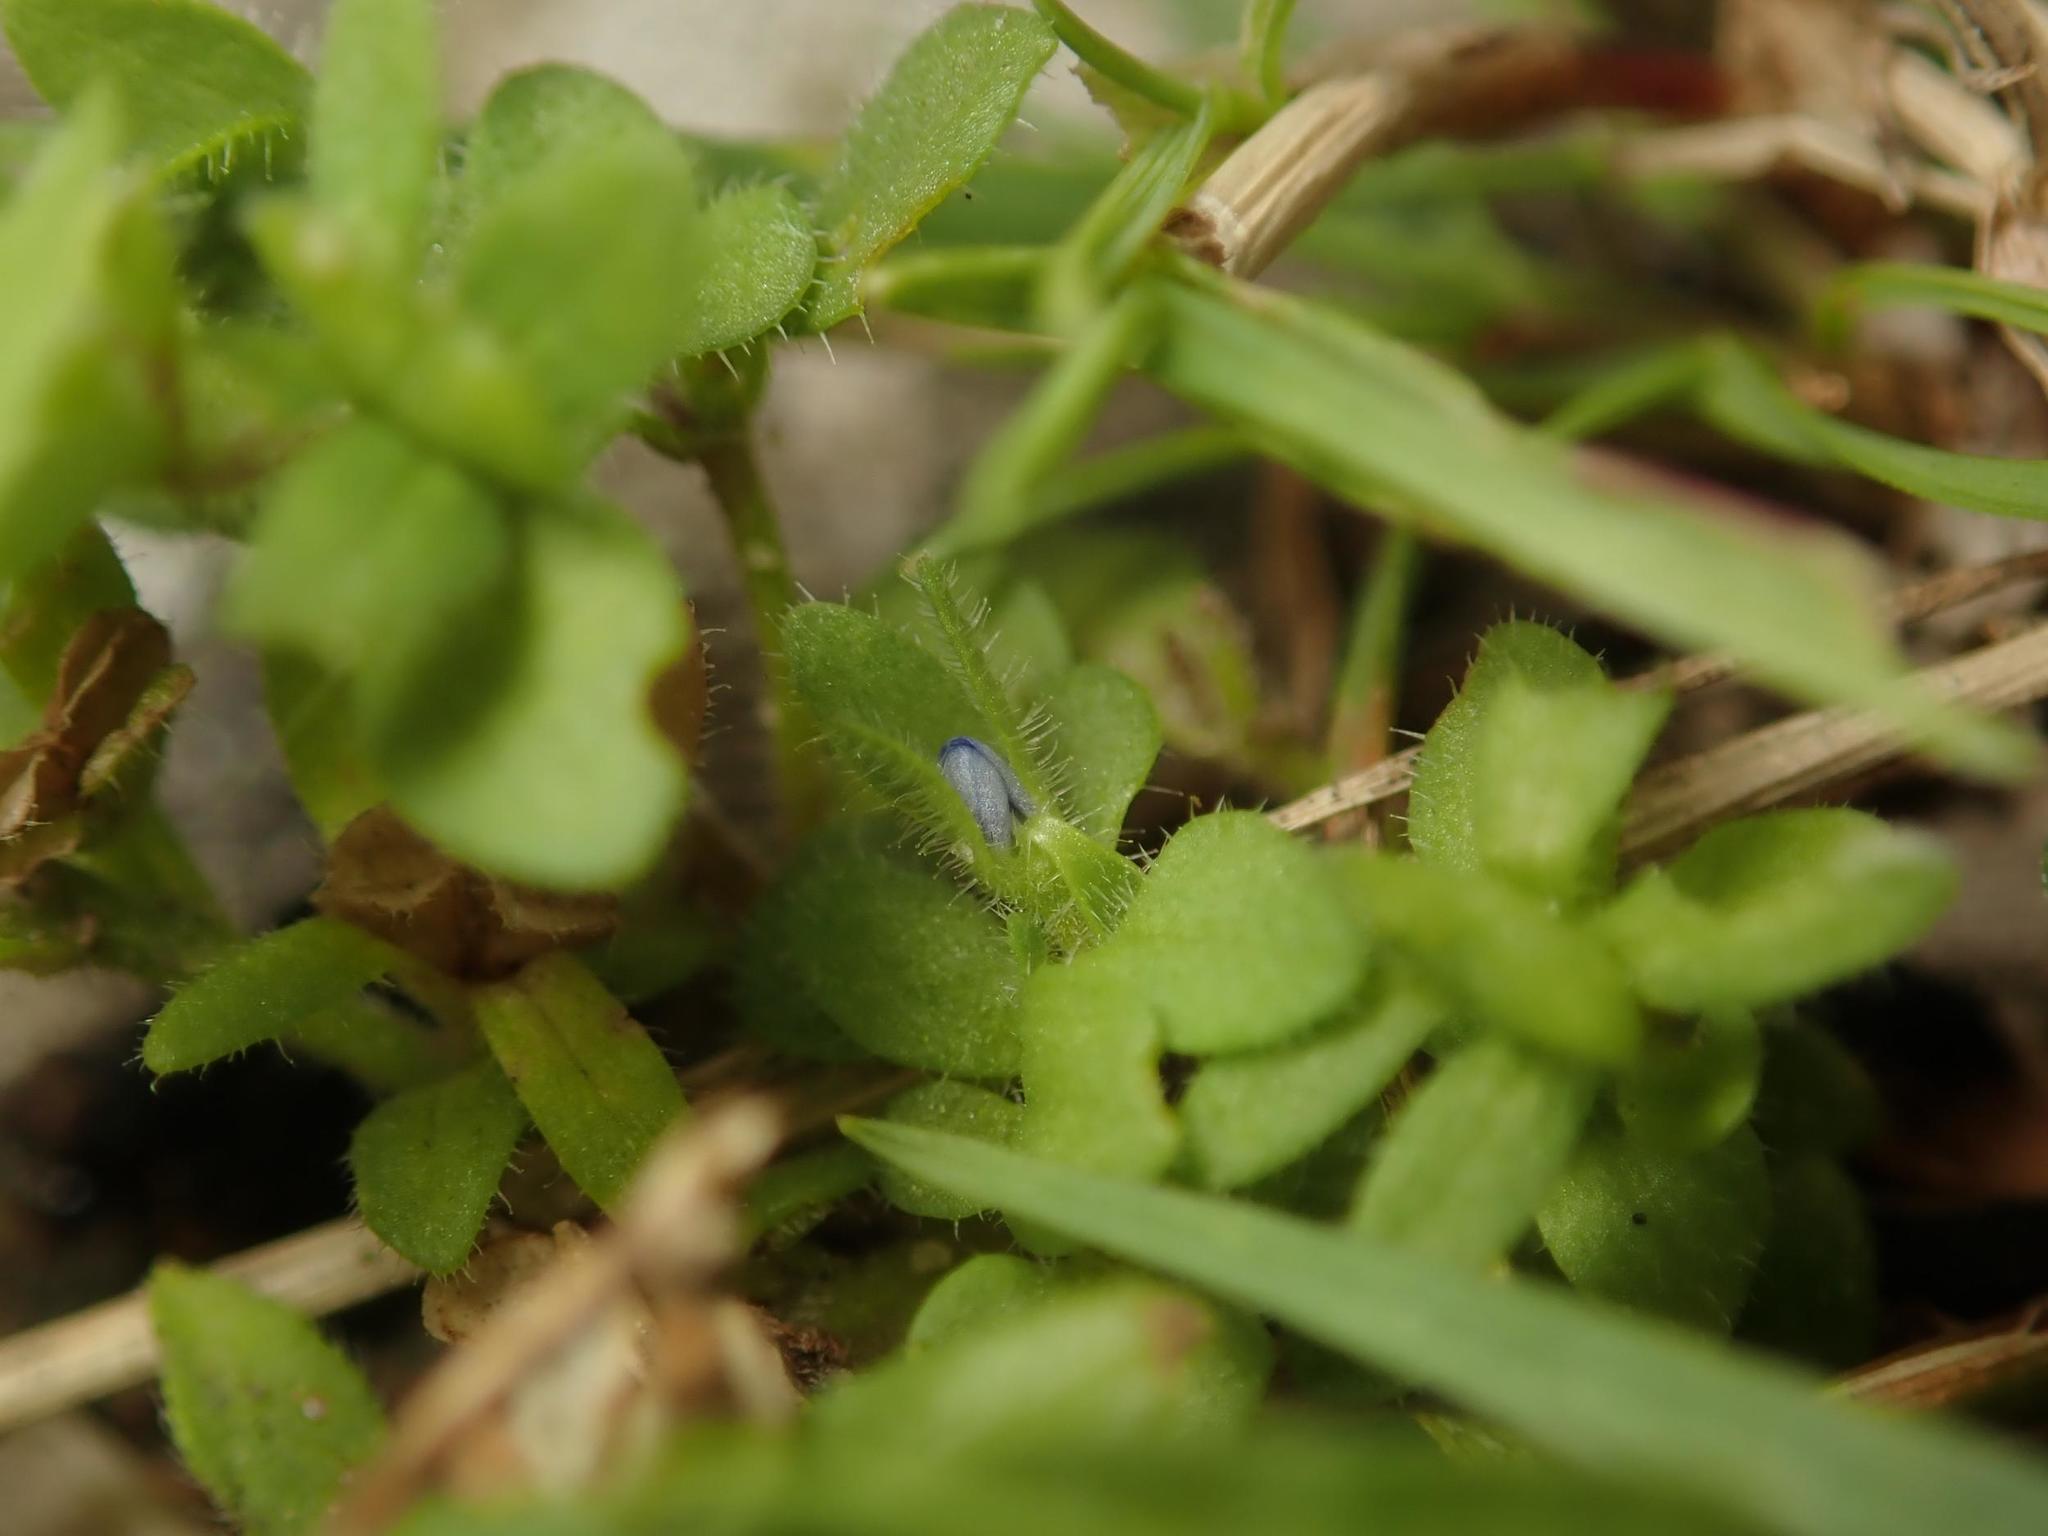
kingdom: Plantae
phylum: Tracheophyta
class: Magnoliopsida
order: Lamiales
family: Plantaginaceae
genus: Veronica
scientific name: Veronica arvensis
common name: Corn speedwell
